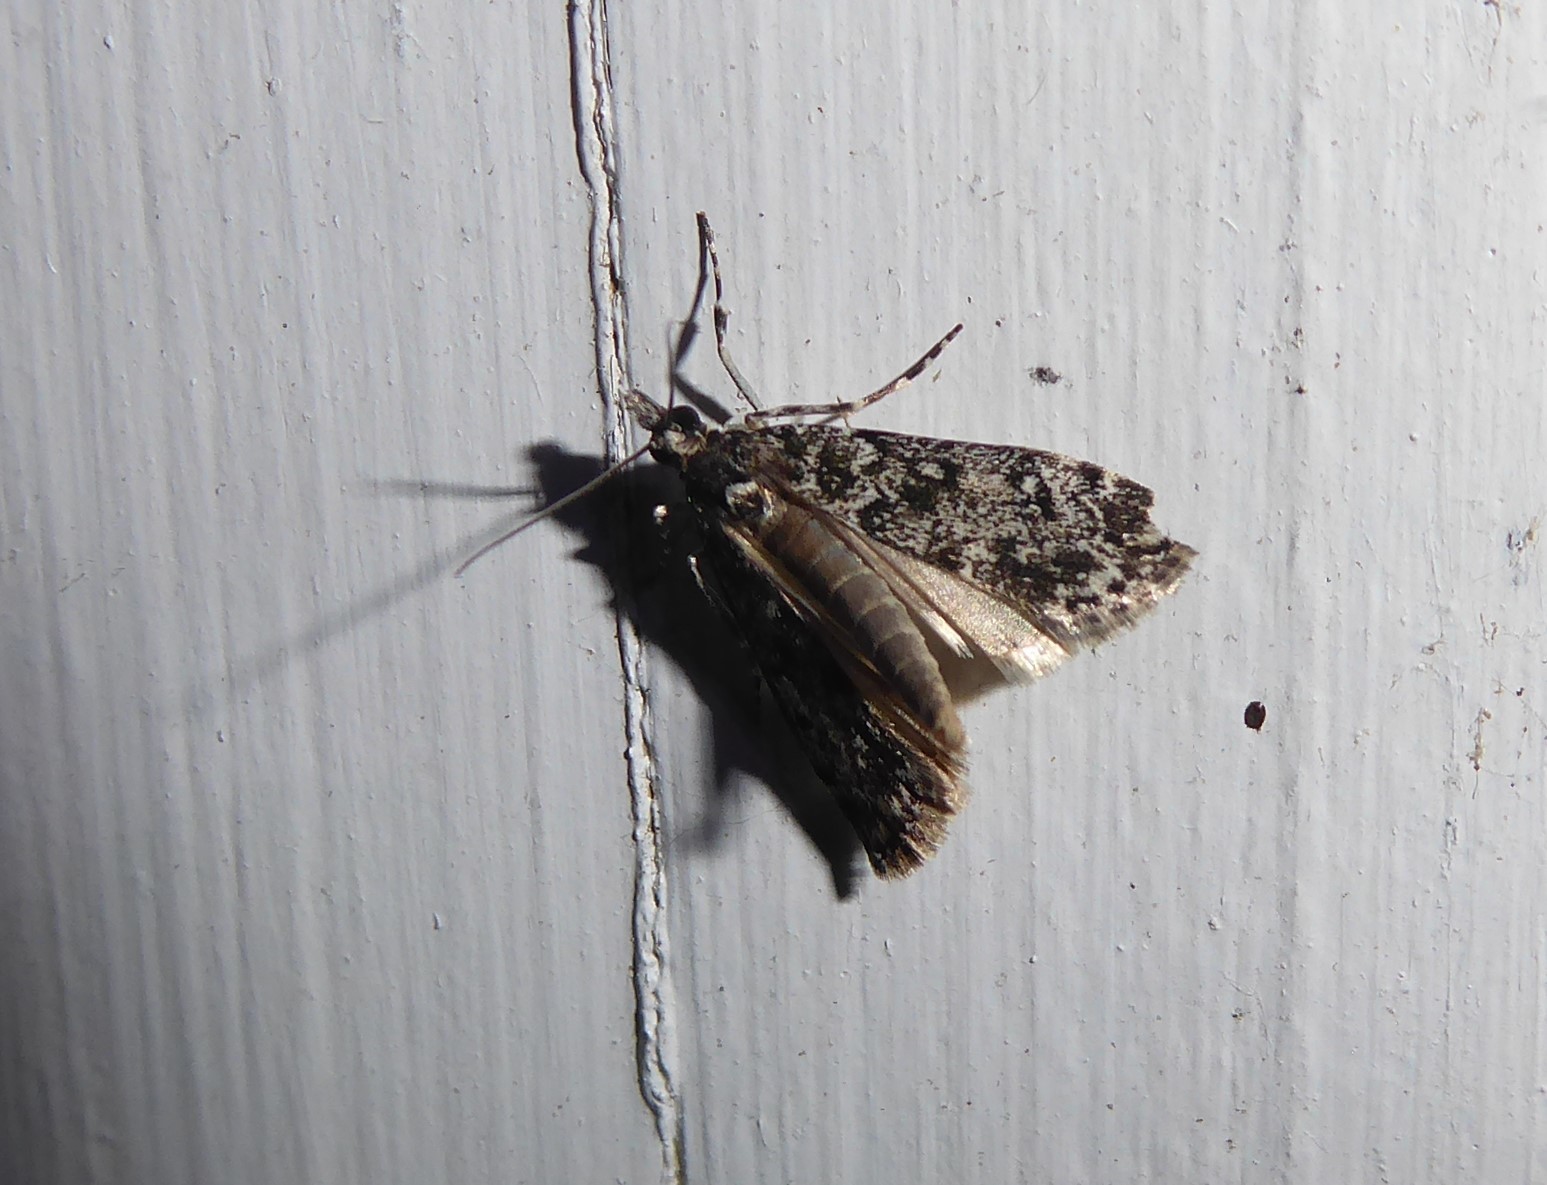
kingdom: Animalia
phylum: Arthropoda
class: Insecta
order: Lepidoptera
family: Crambidae
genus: Eudonia
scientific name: Eudonia philerga
